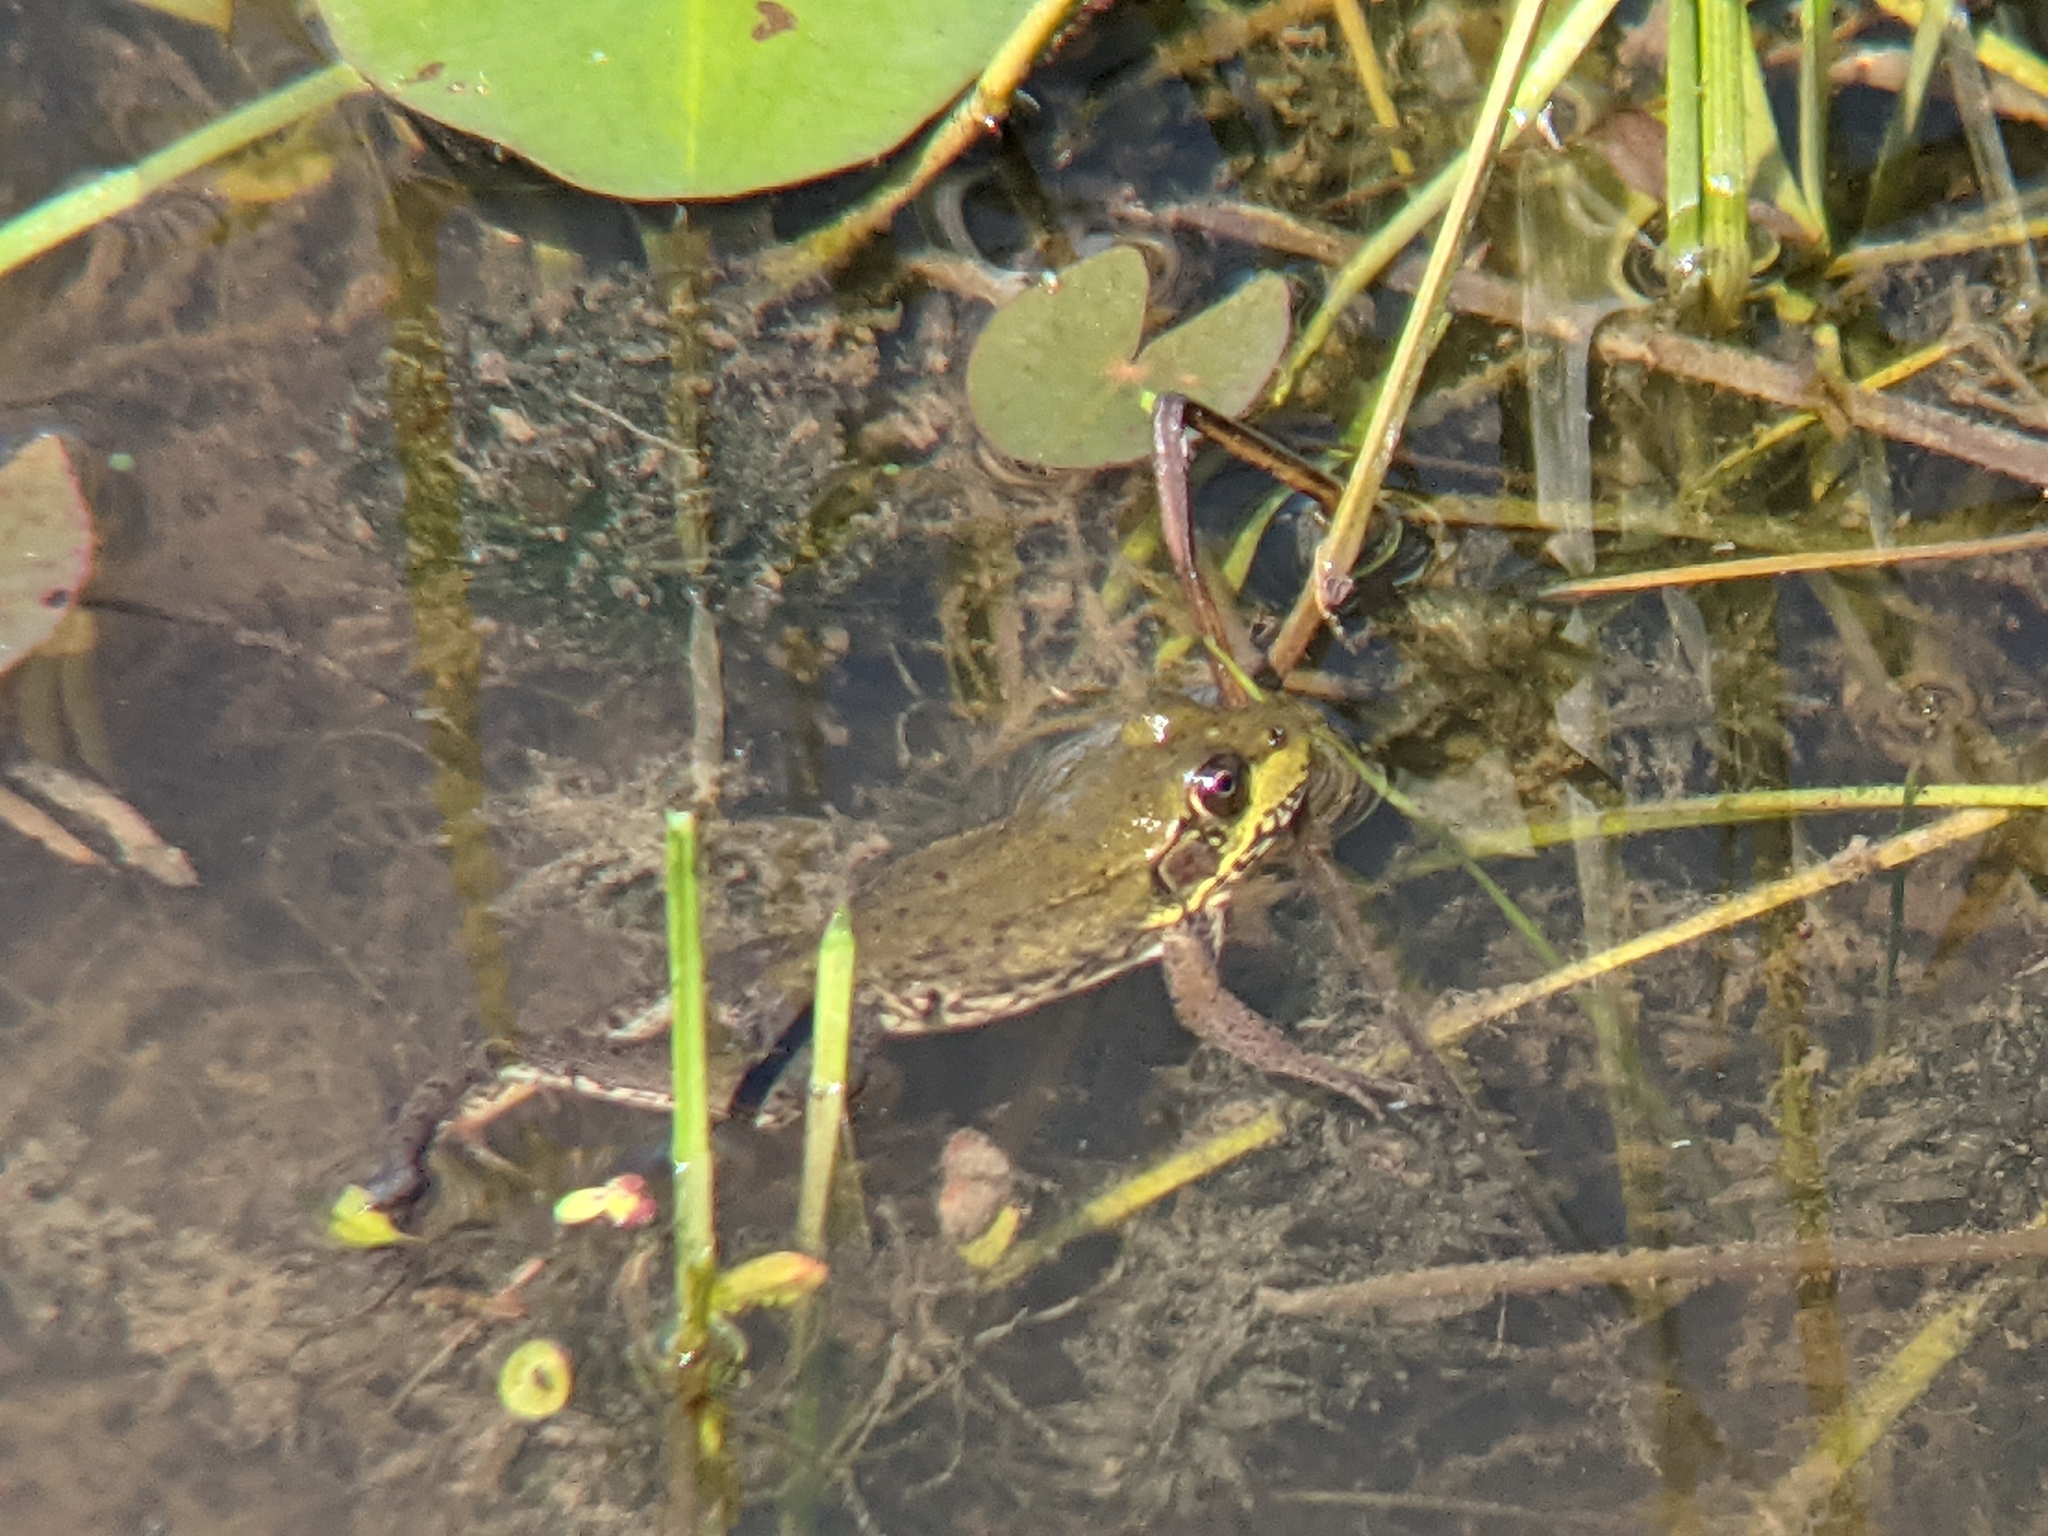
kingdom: Animalia
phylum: Chordata
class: Amphibia
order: Anura
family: Ranidae
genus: Lithobates
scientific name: Lithobates clamitans
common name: Green frog
